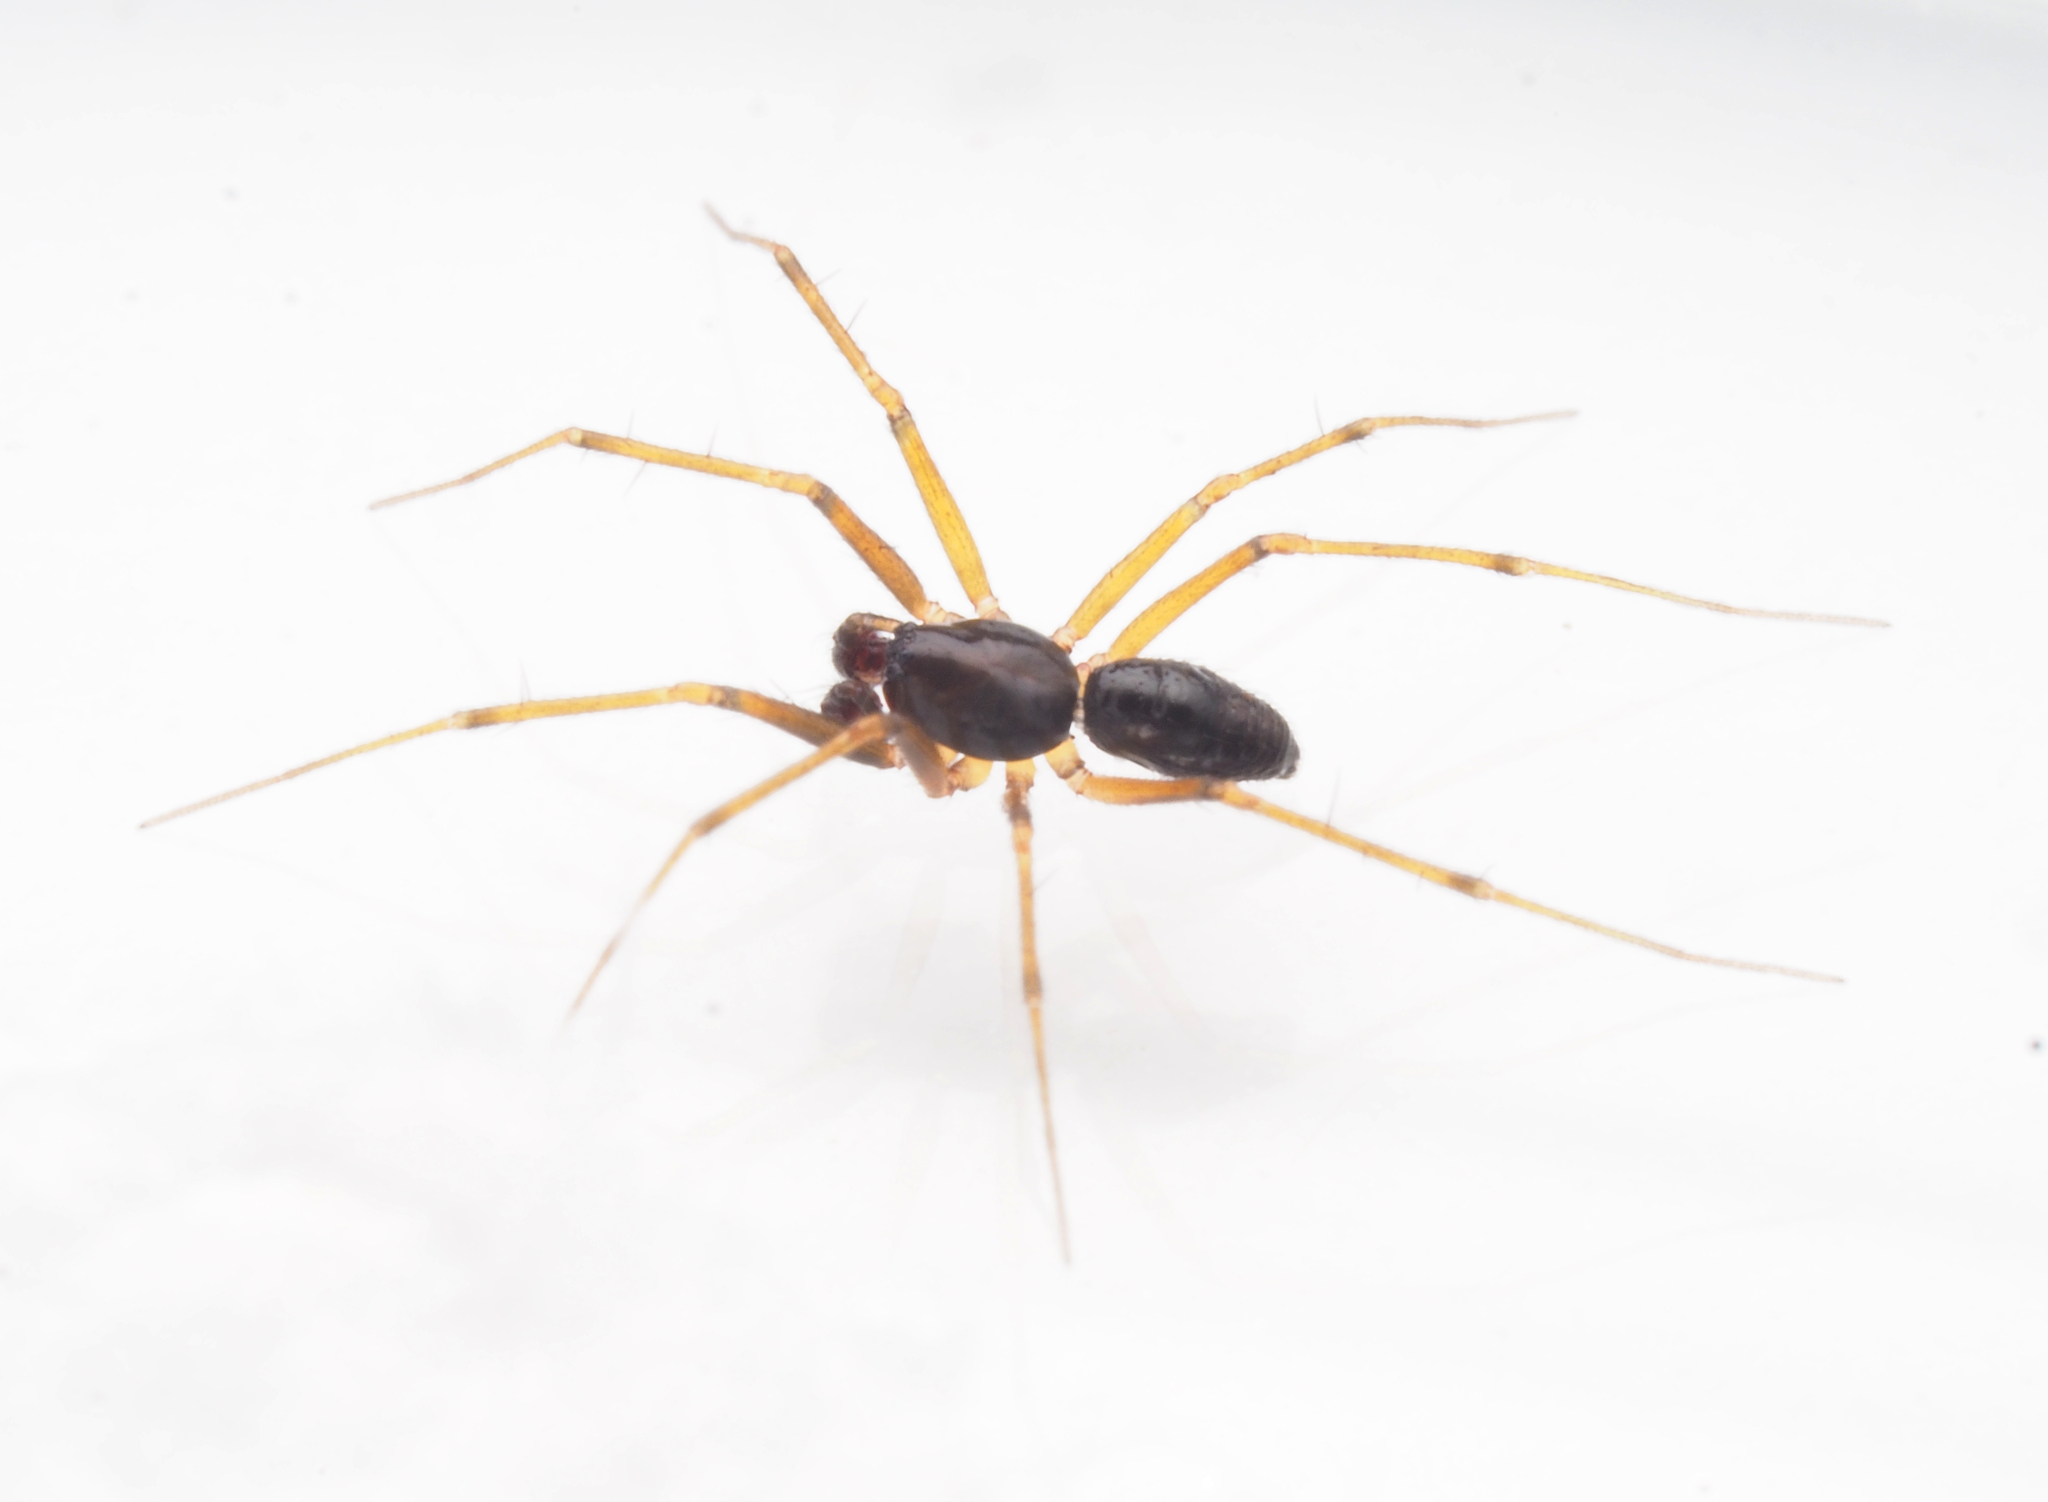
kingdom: Animalia
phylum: Arthropoda
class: Arachnida
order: Araneae
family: Linyphiidae
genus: Laetesia
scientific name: Laetesia
